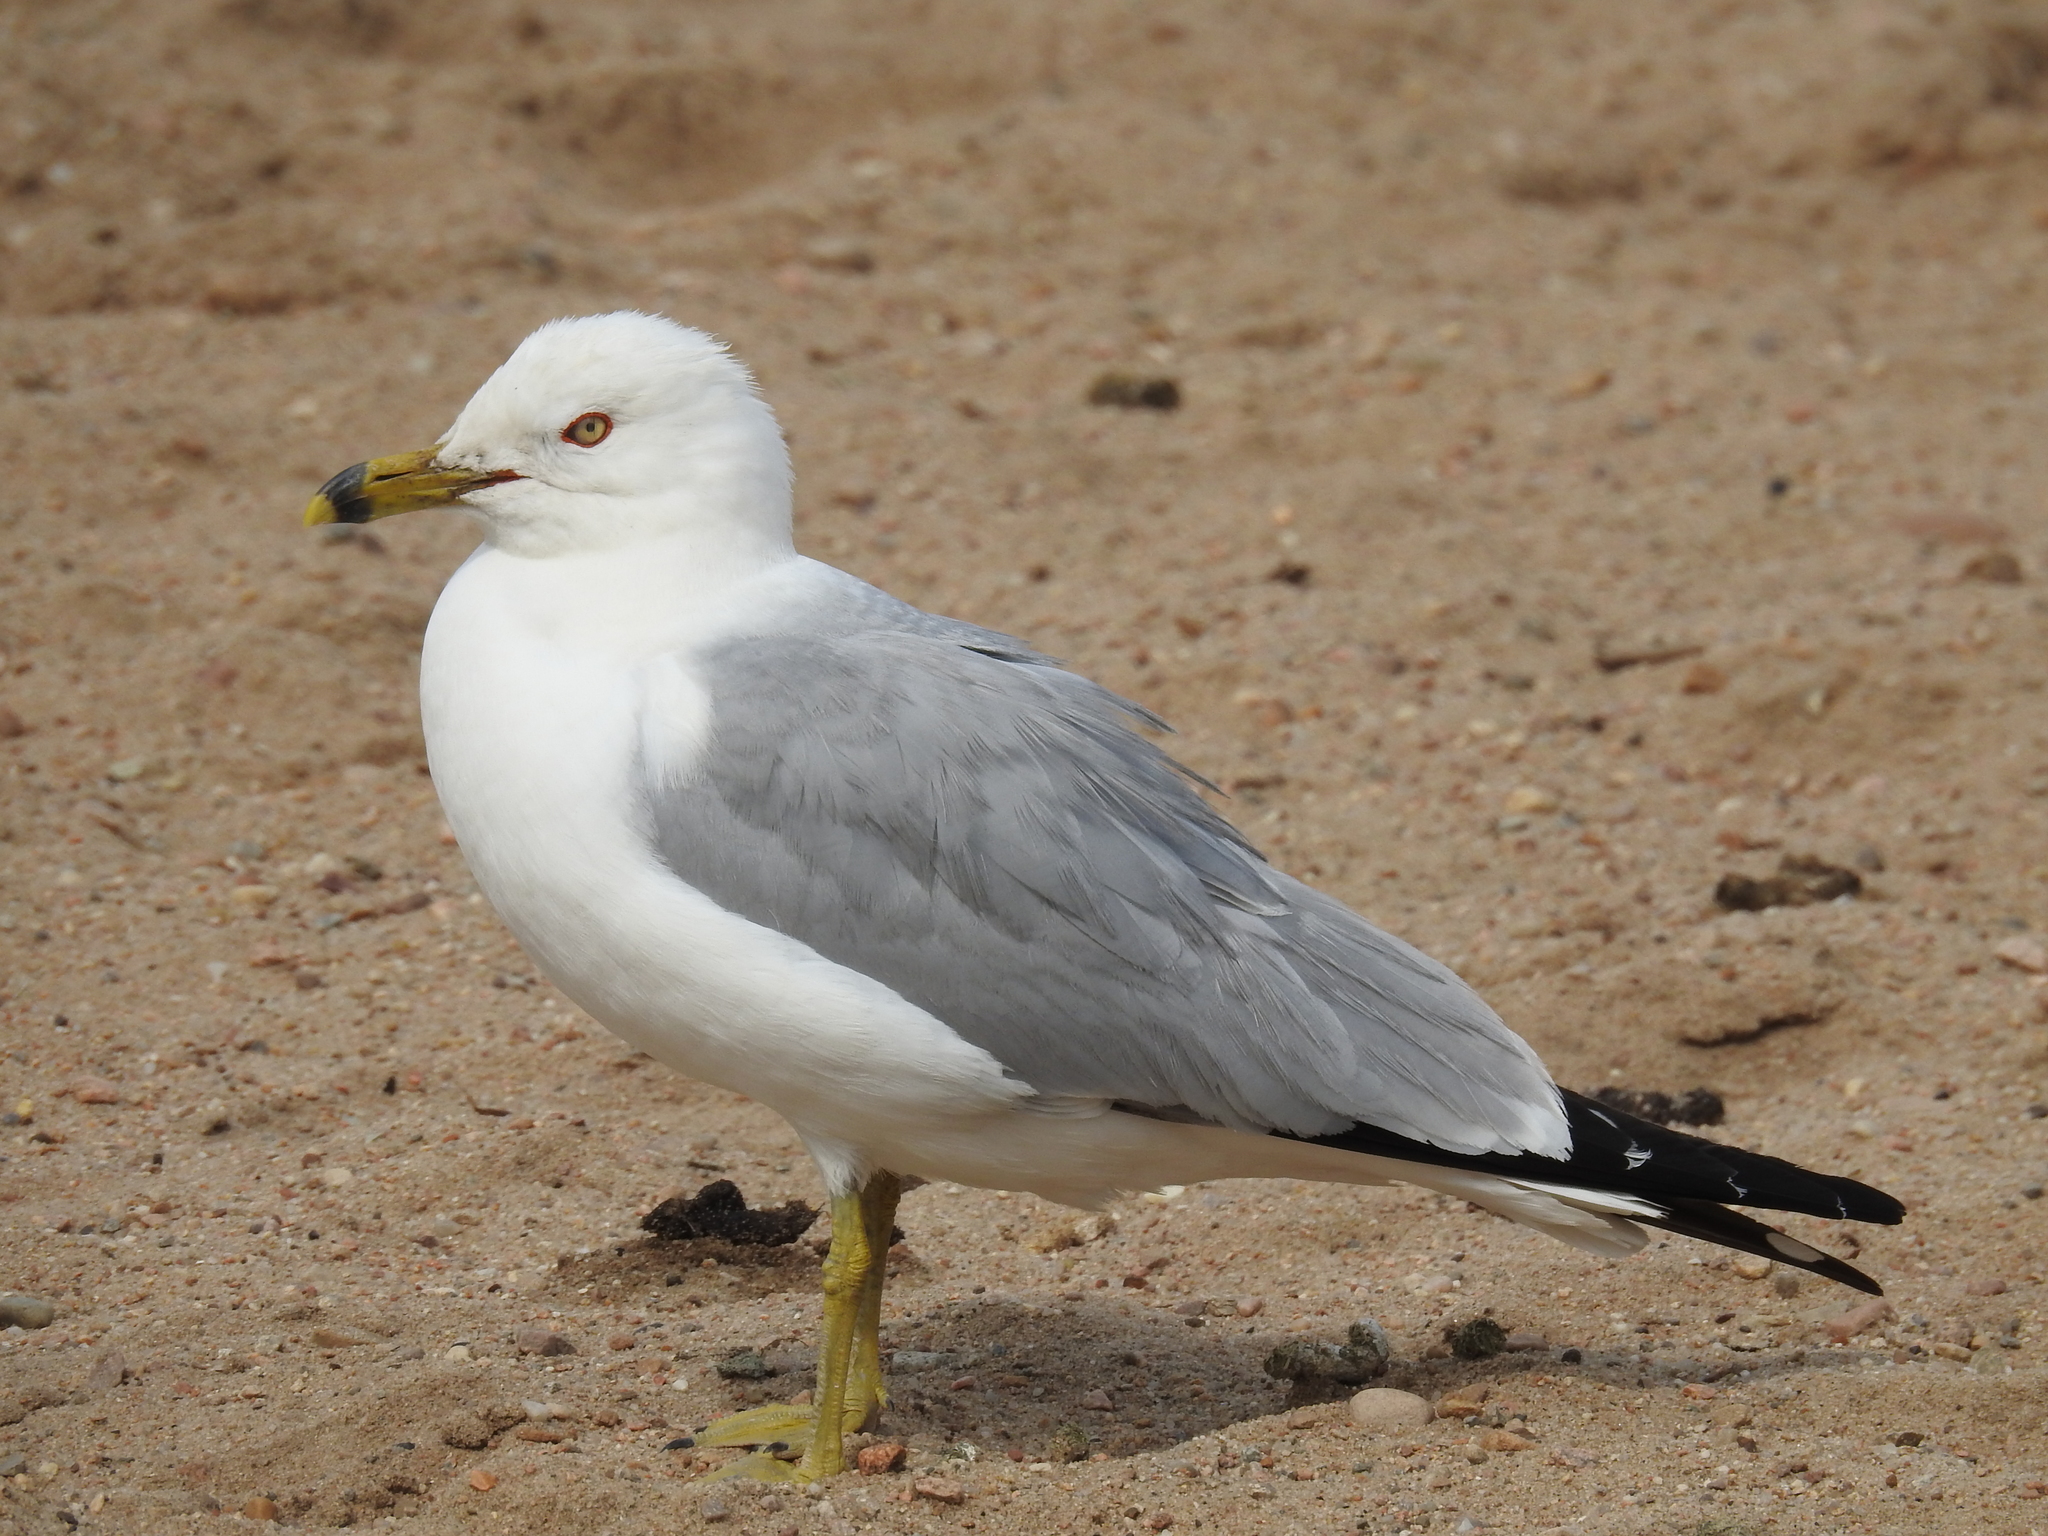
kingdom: Animalia
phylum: Chordata
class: Aves
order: Charadriiformes
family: Laridae
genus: Larus
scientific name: Larus delawarensis
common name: Ring-billed gull
